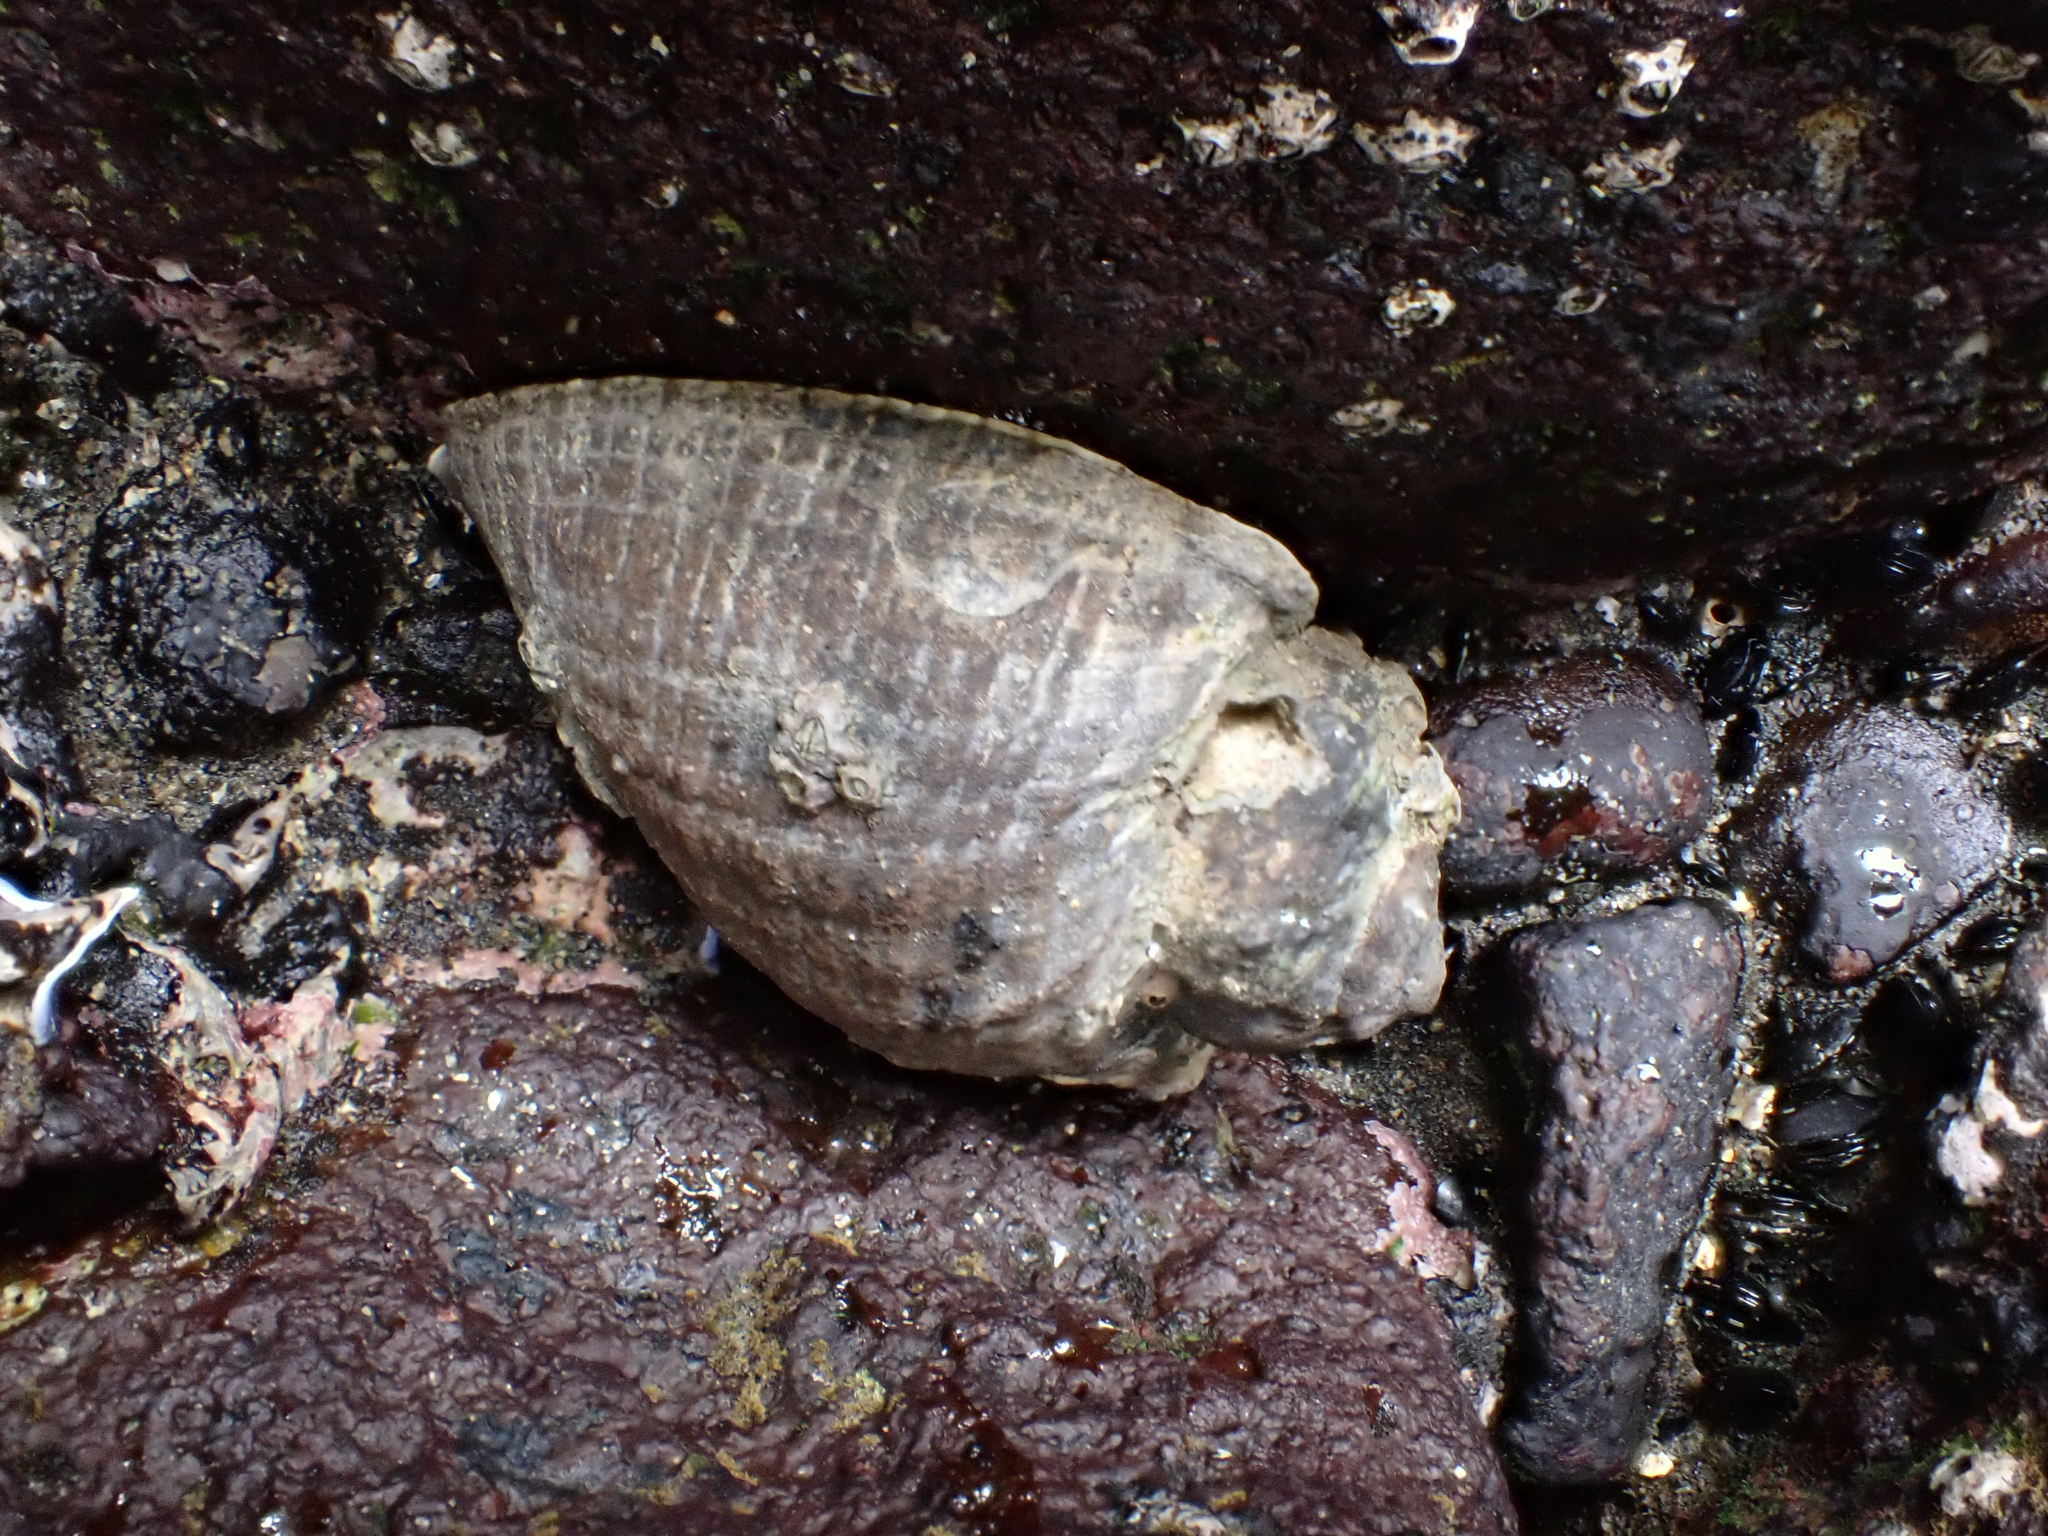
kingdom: Animalia
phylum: Mollusca
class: Gastropoda
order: Neogastropoda
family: Muricidae
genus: Haustrum
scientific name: Haustrum haustorium
